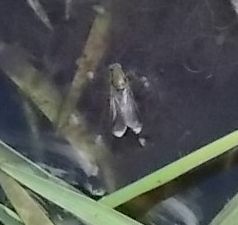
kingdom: Animalia
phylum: Arthropoda
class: Insecta
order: Diptera
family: Dolichopodidae
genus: Poecilobothrus
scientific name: Poecilobothrus nobilitatus
